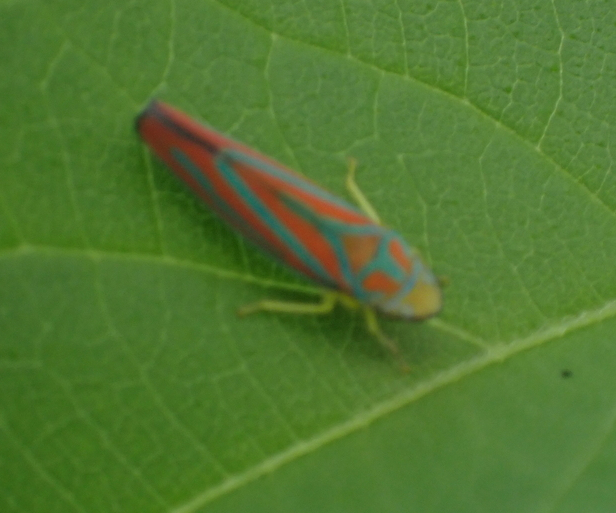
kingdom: Animalia
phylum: Arthropoda
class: Insecta
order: Hemiptera
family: Cicadellidae
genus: Graphocephala
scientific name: Graphocephala coccinea
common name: Candy-striped leafhopper
